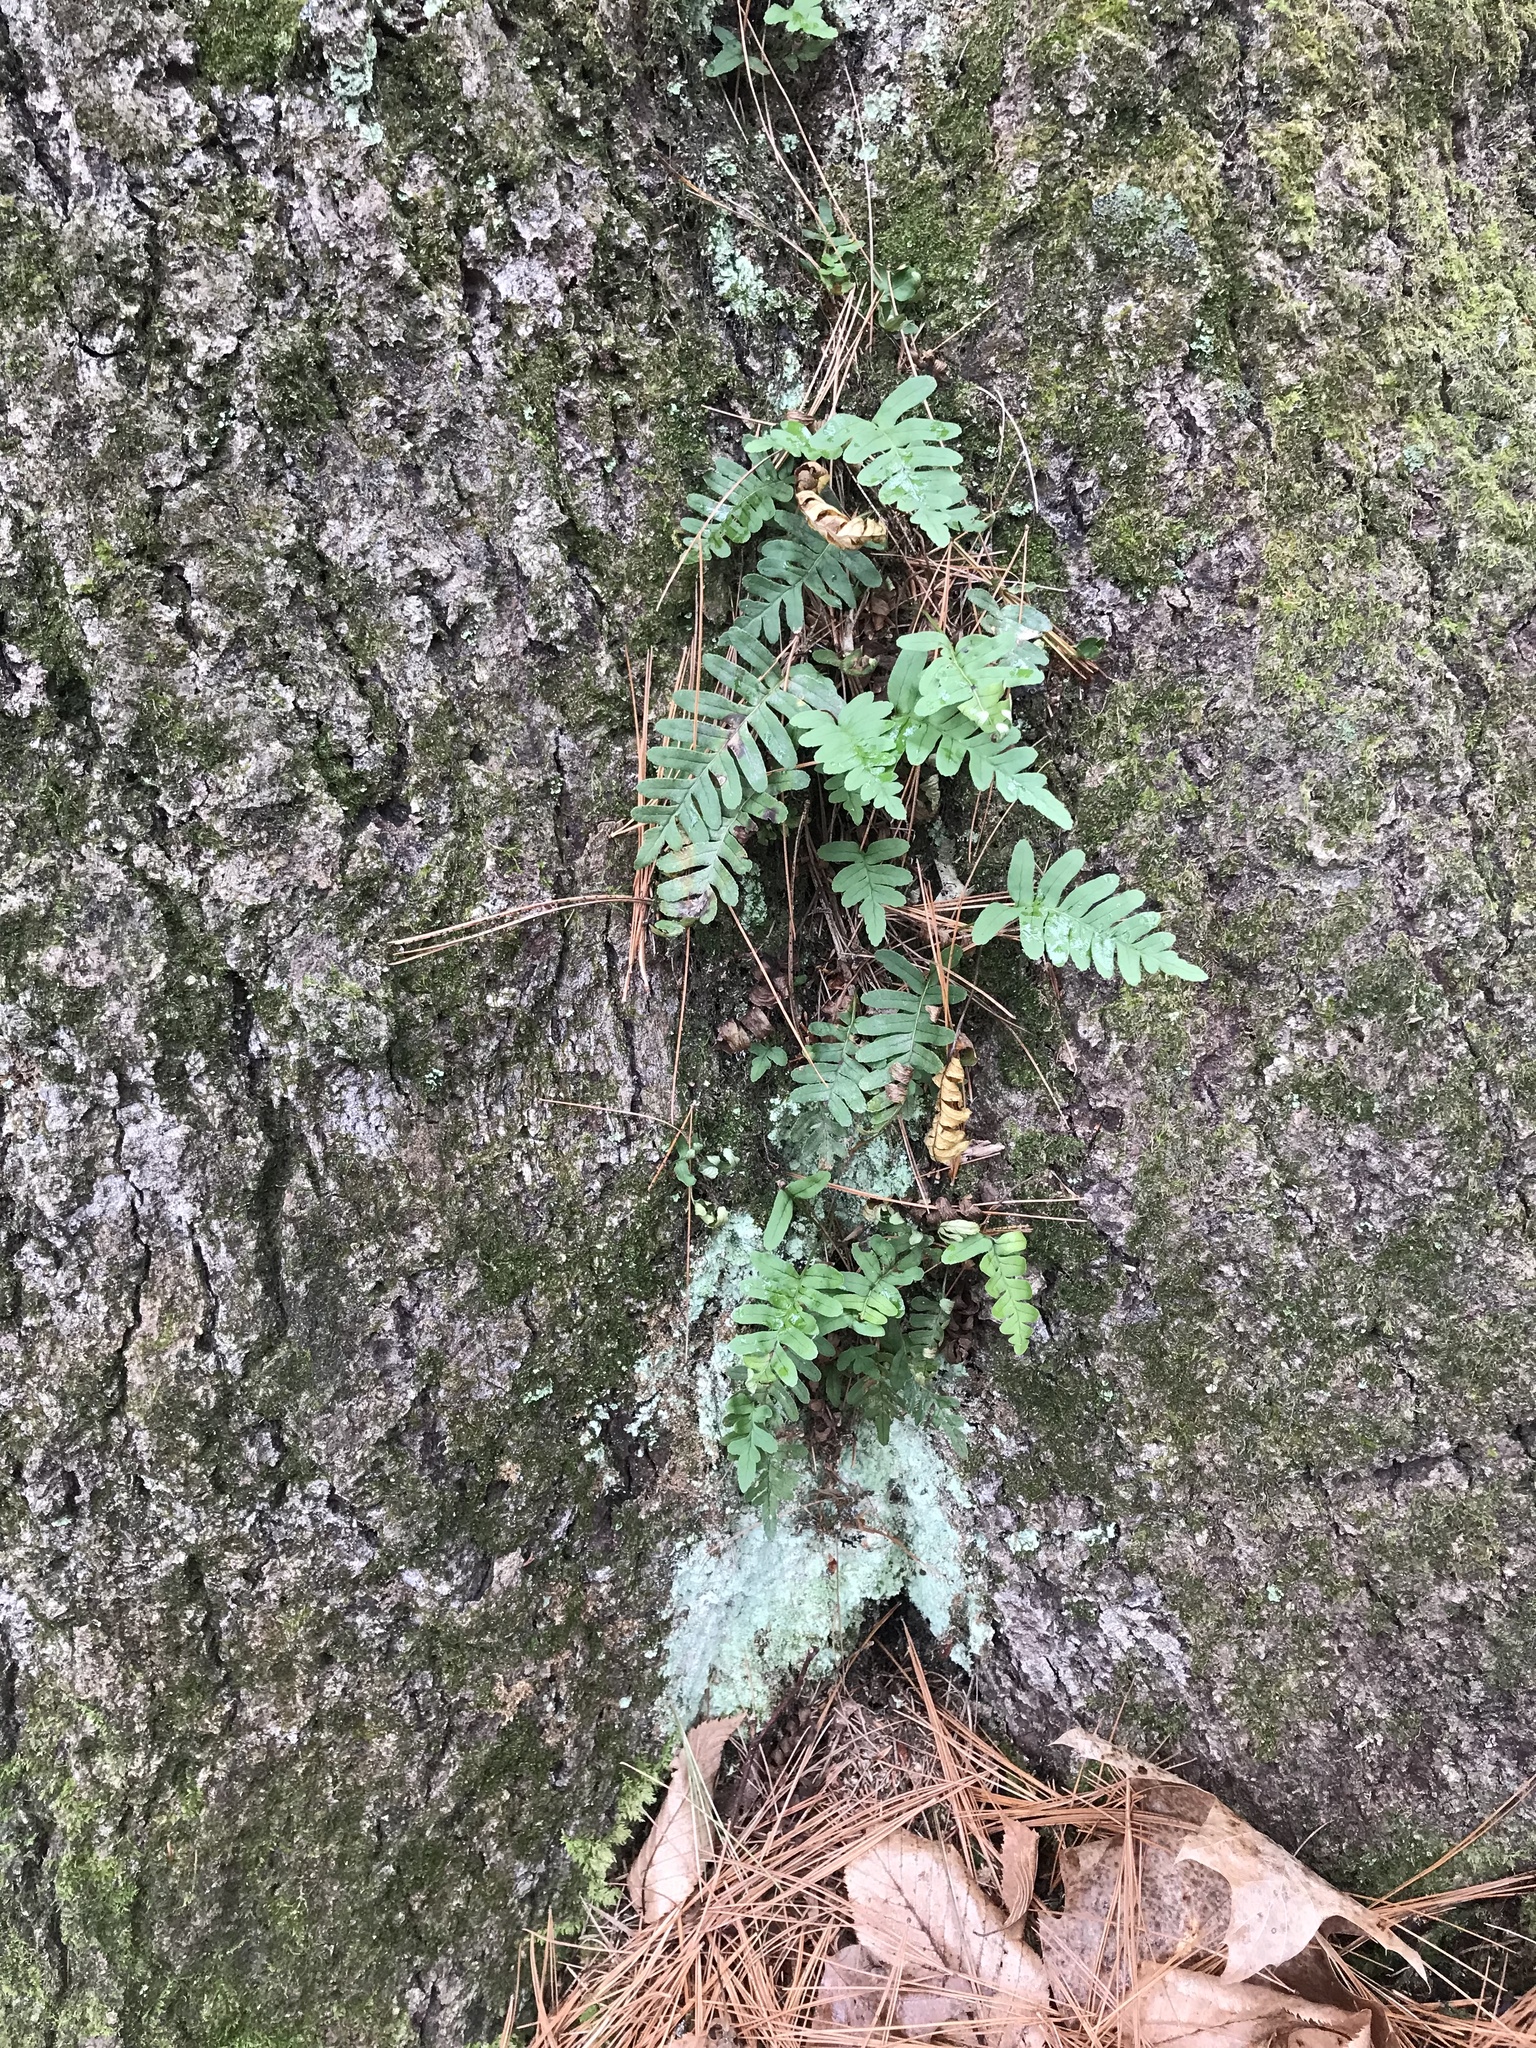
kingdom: Plantae
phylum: Tracheophyta
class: Polypodiopsida
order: Polypodiales
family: Polypodiaceae
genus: Polypodium
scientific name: Polypodium virginianum
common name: American wall fern
